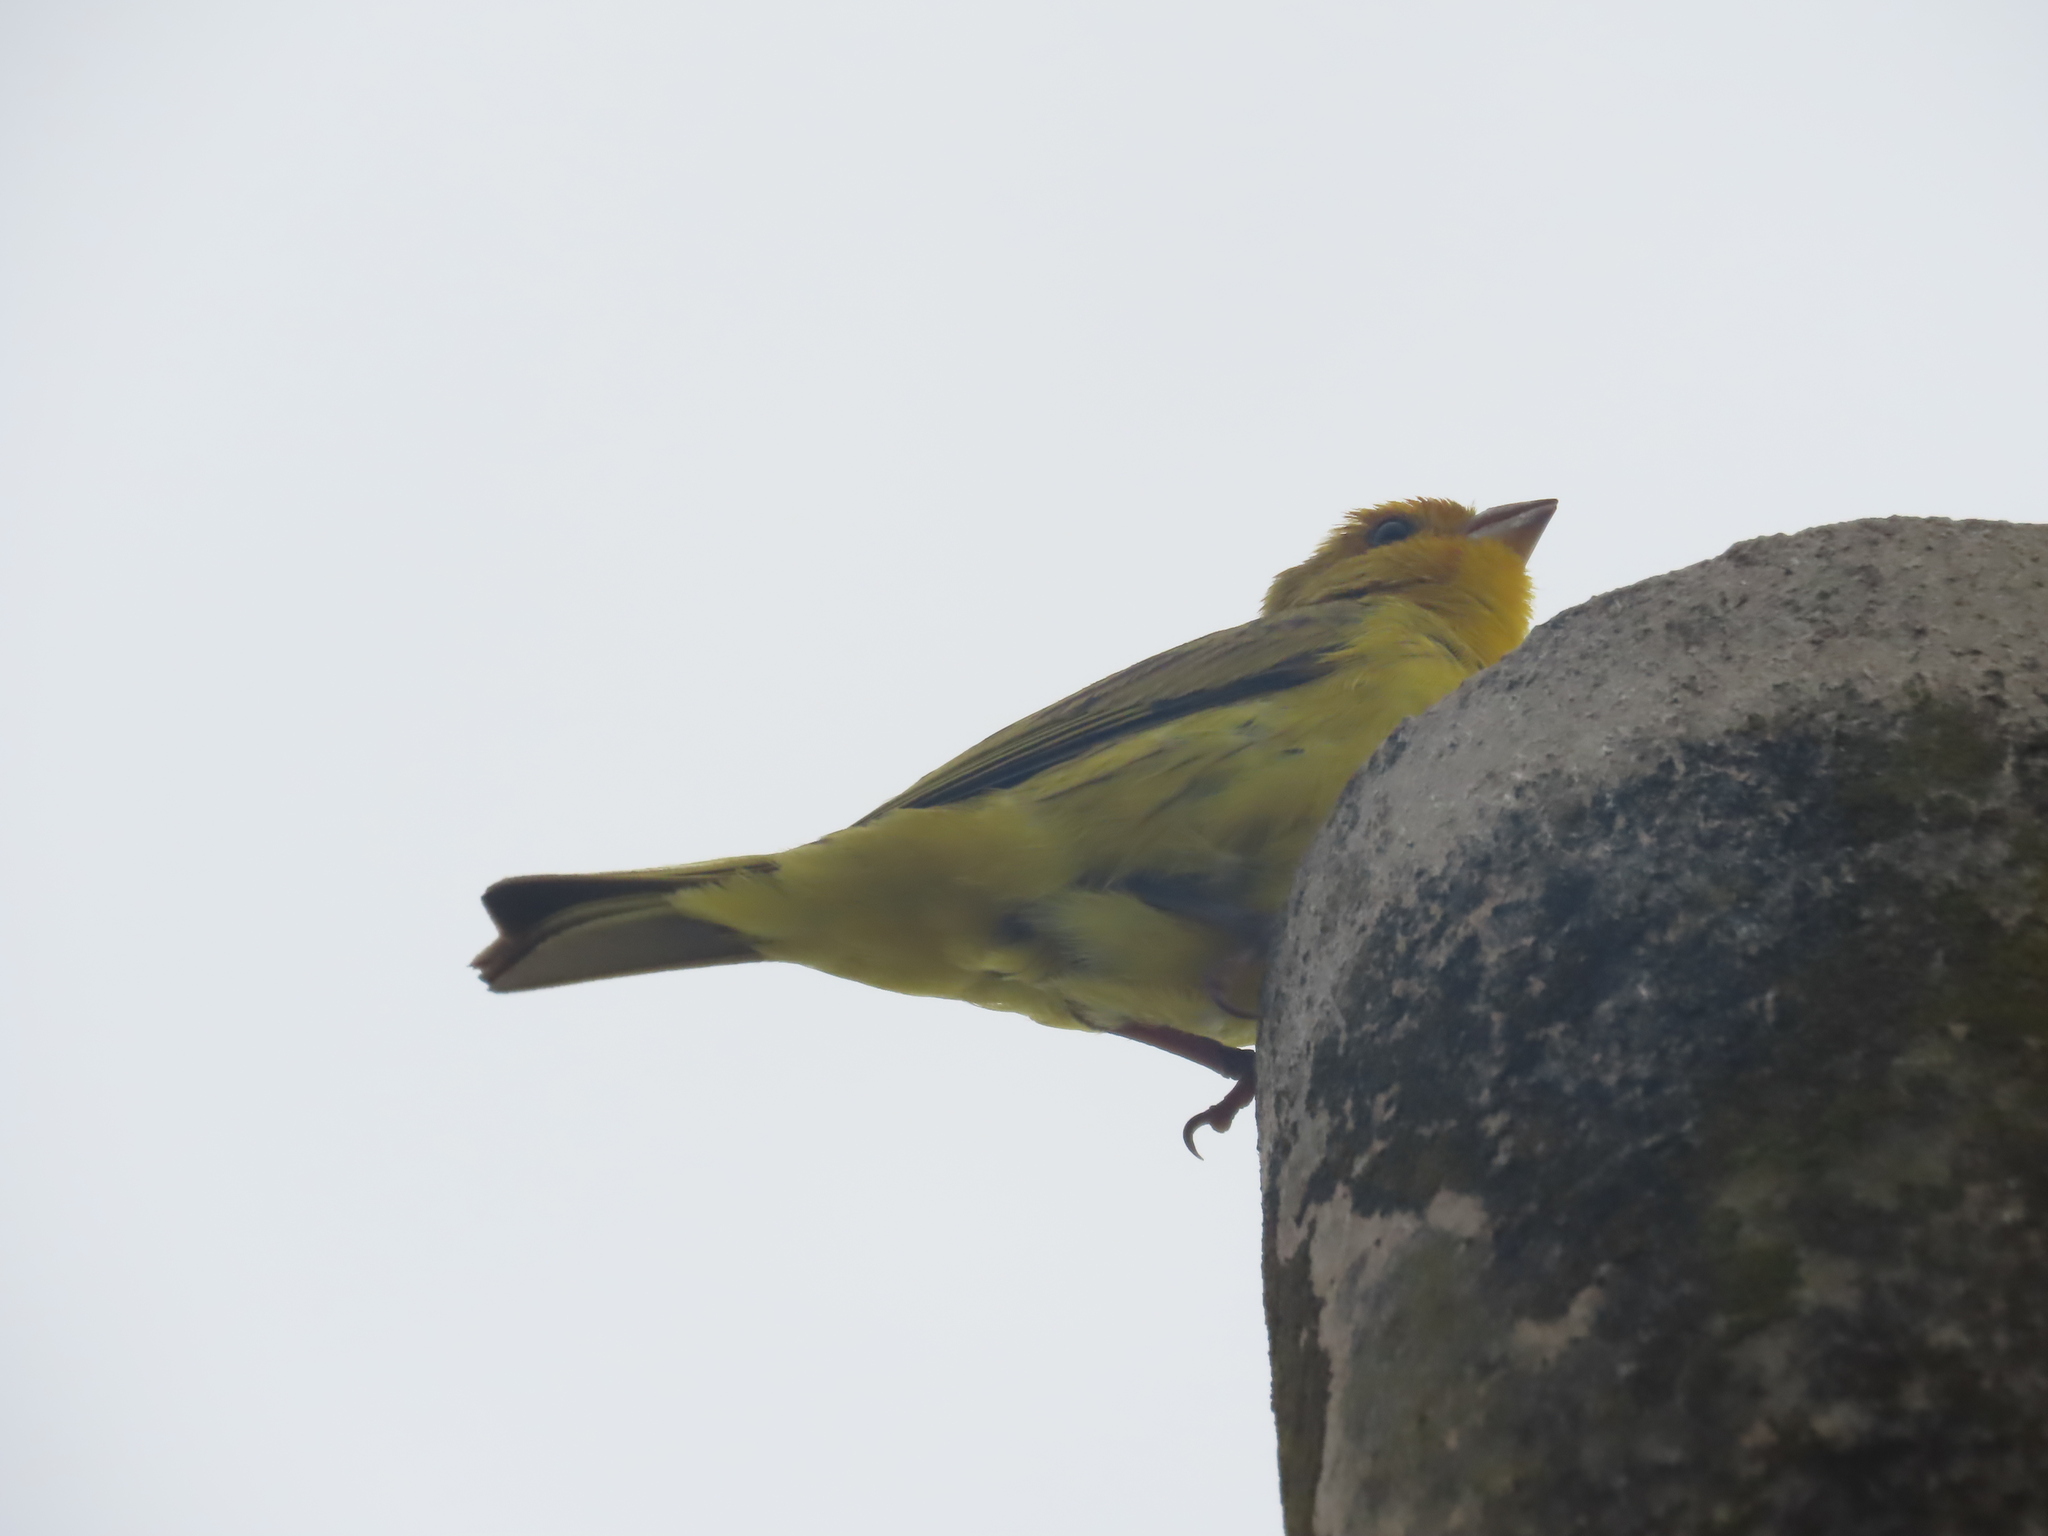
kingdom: Animalia
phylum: Chordata
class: Aves
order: Passeriformes
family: Thraupidae
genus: Sicalis
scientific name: Sicalis flaveola
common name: Saffron finch
